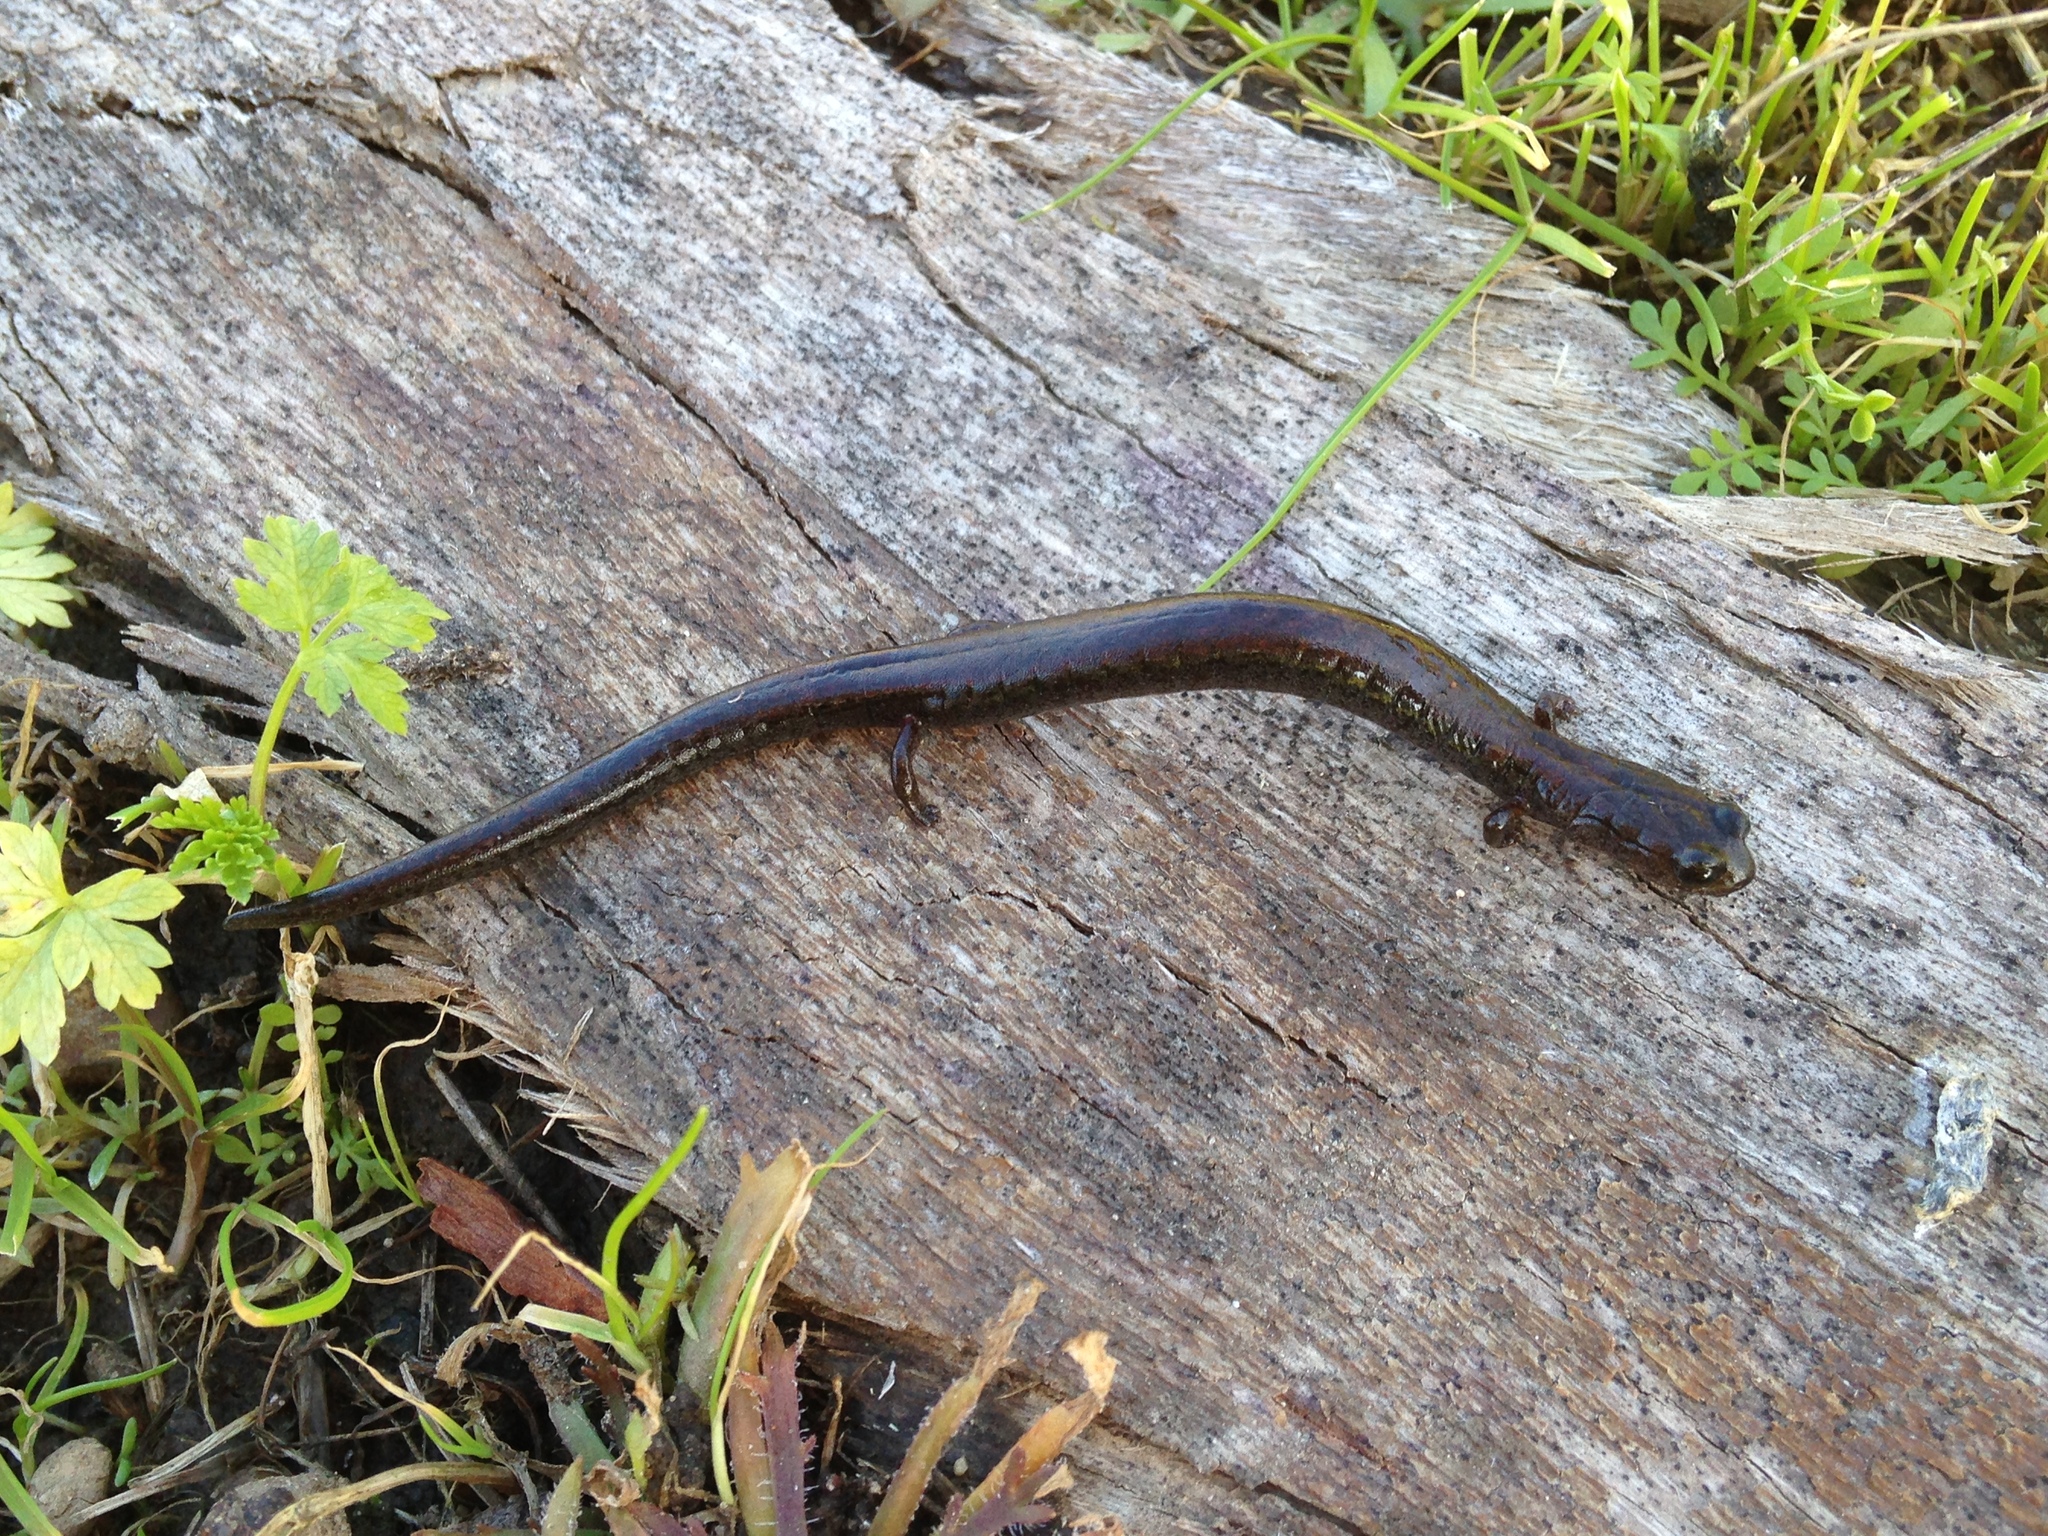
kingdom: Animalia
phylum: Chordata
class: Amphibia
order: Caudata
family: Plethodontidae
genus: Batrachoseps
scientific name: Batrachoseps attenuatus
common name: California slender salamander
